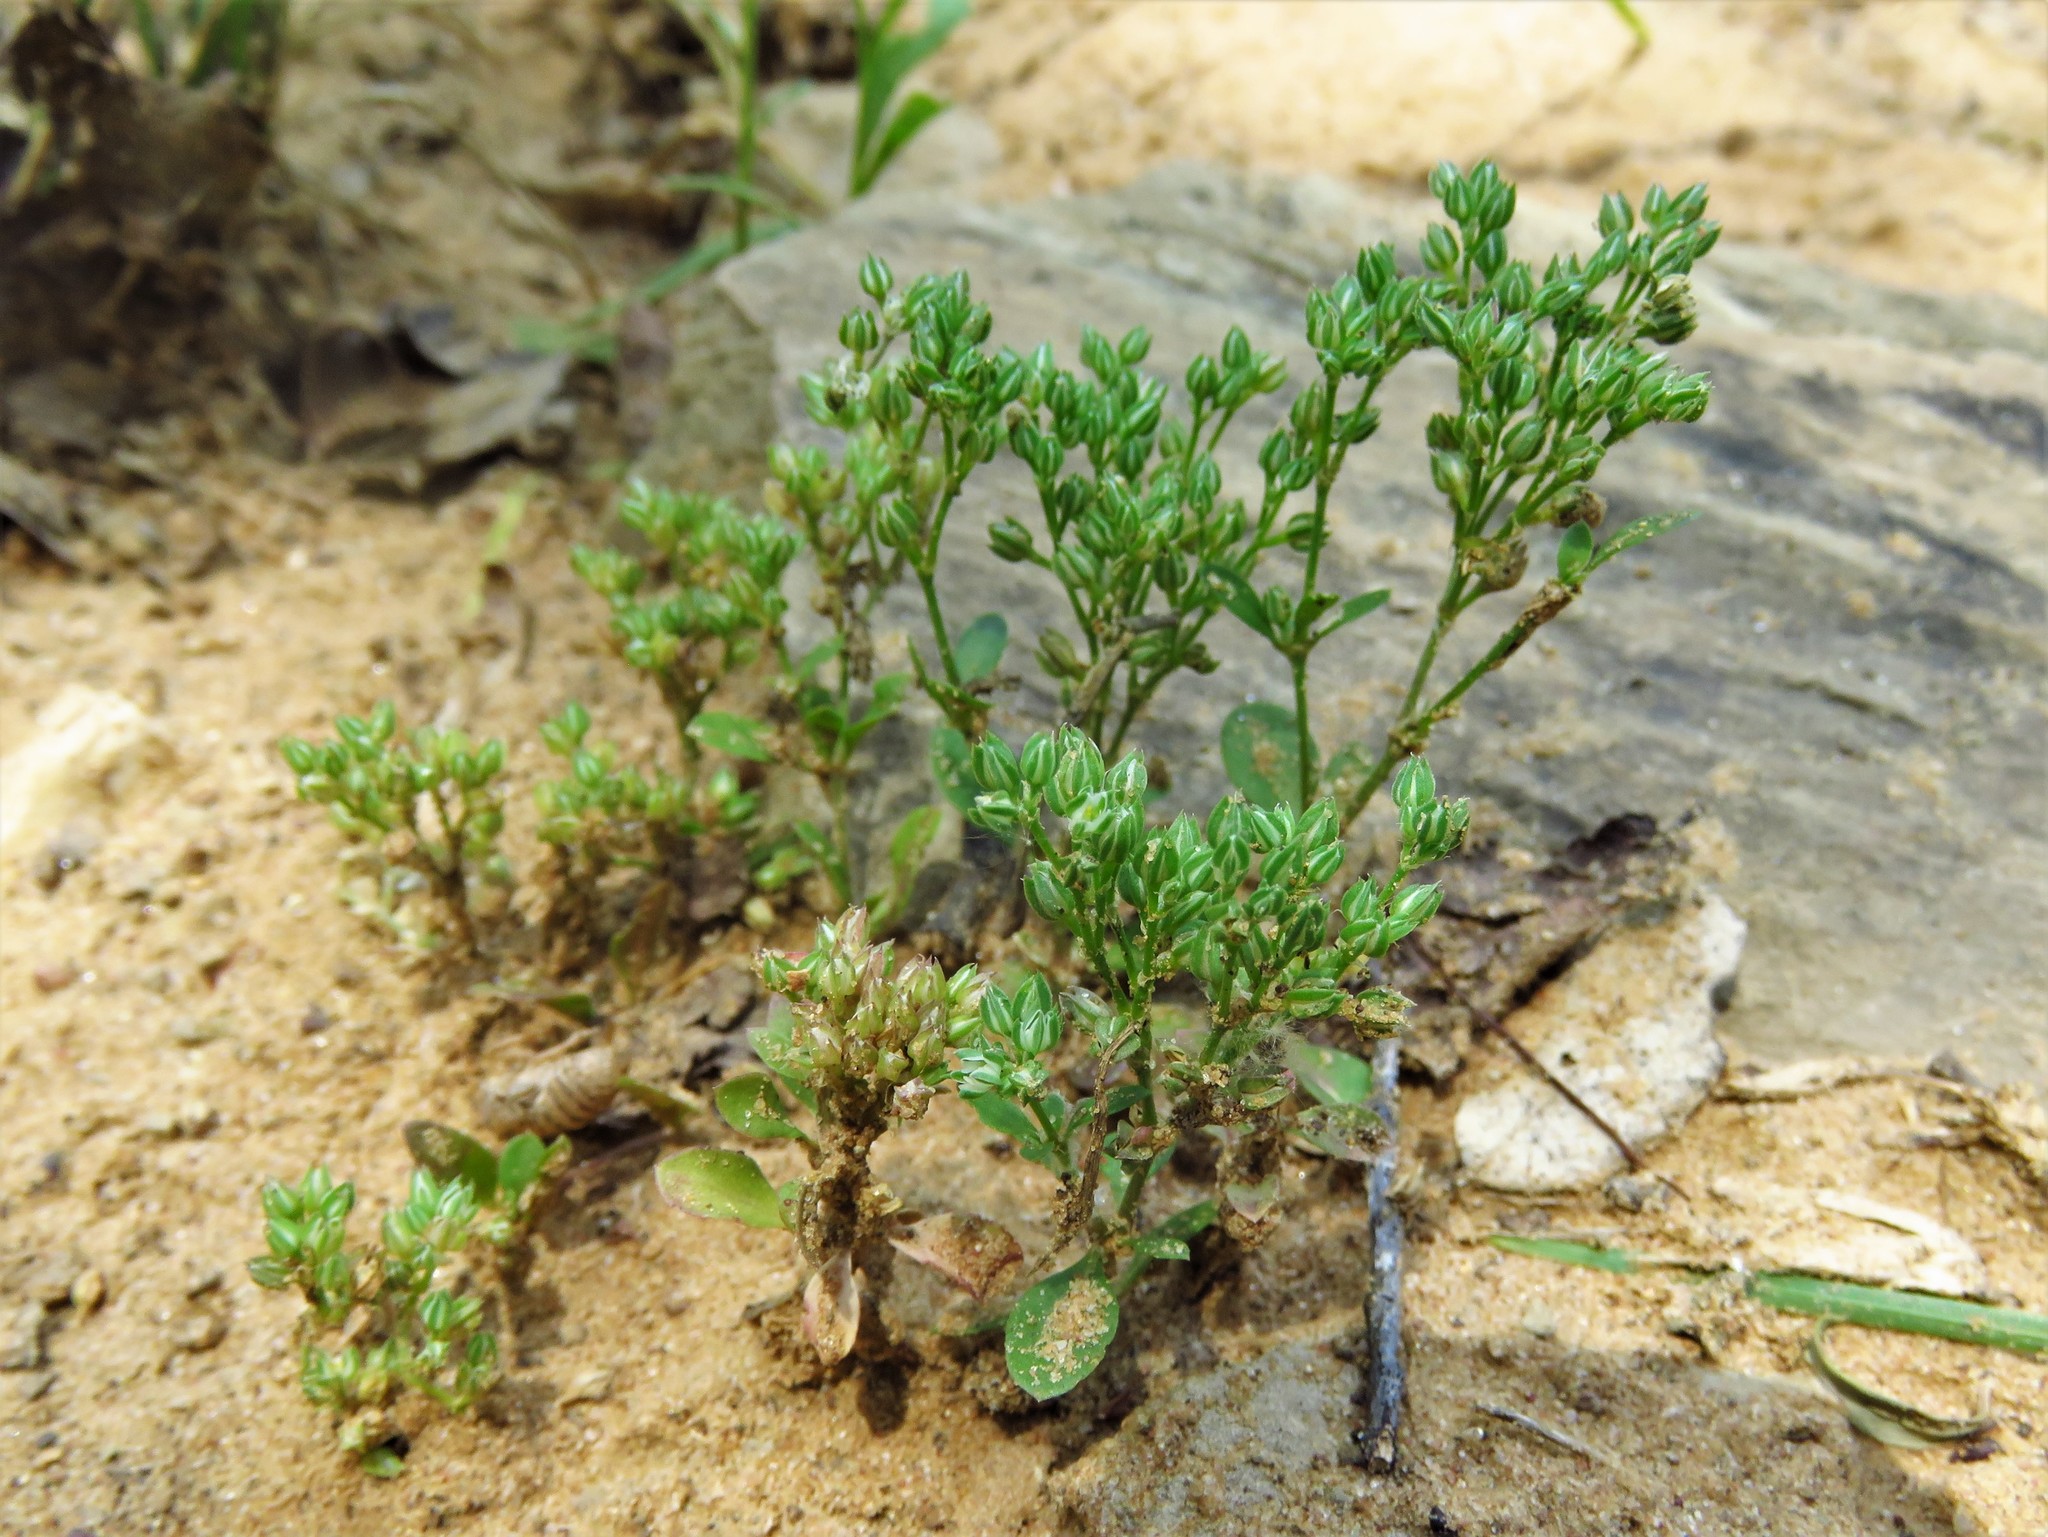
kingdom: Plantae
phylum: Tracheophyta
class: Magnoliopsida
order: Caryophyllales
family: Caryophyllaceae
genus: Polycarpon
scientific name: Polycarpon tetraphyllum
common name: Four-leaved all-seed
